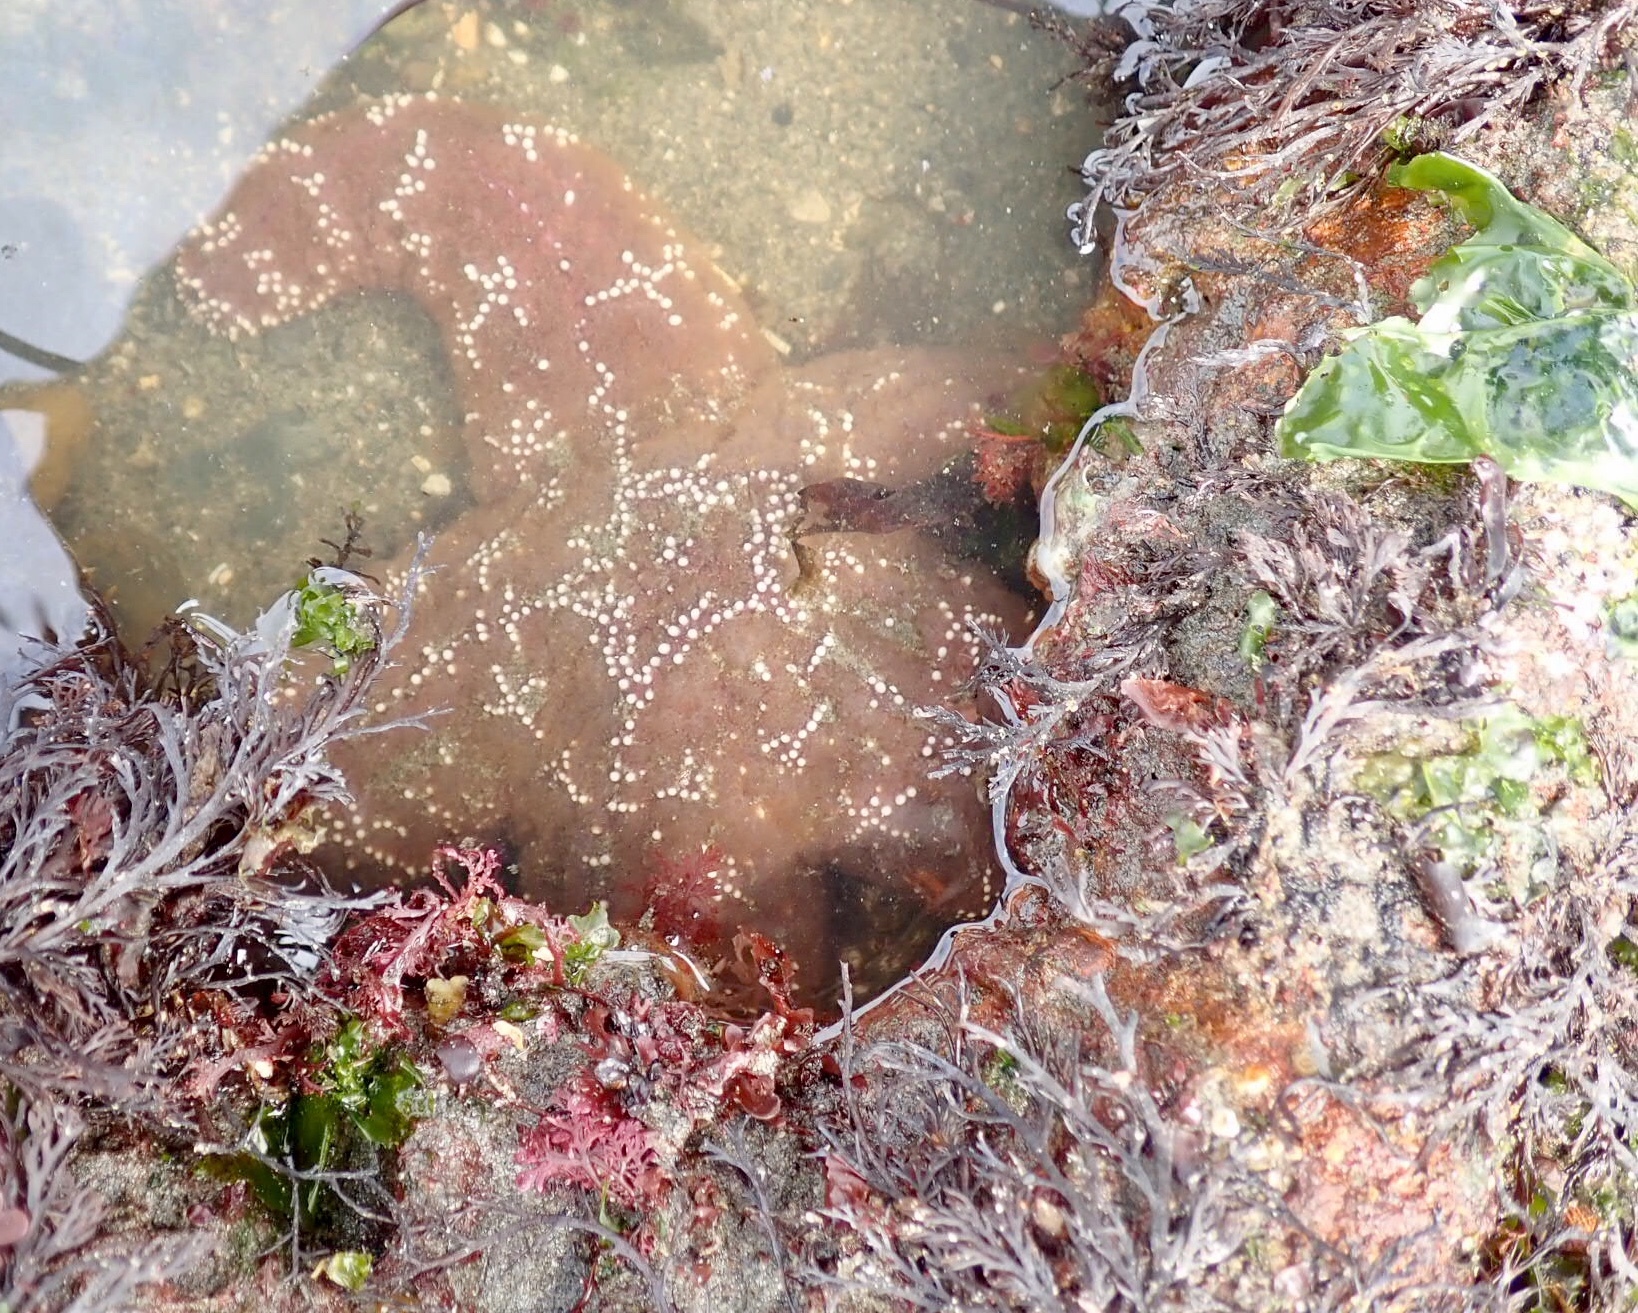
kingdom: Animalia
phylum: Echinodermata
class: Asteroidea
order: Forcipulatida
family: Asteriidae
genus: Pisaster
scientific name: Pisaster ochraceus
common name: Ochre stars
